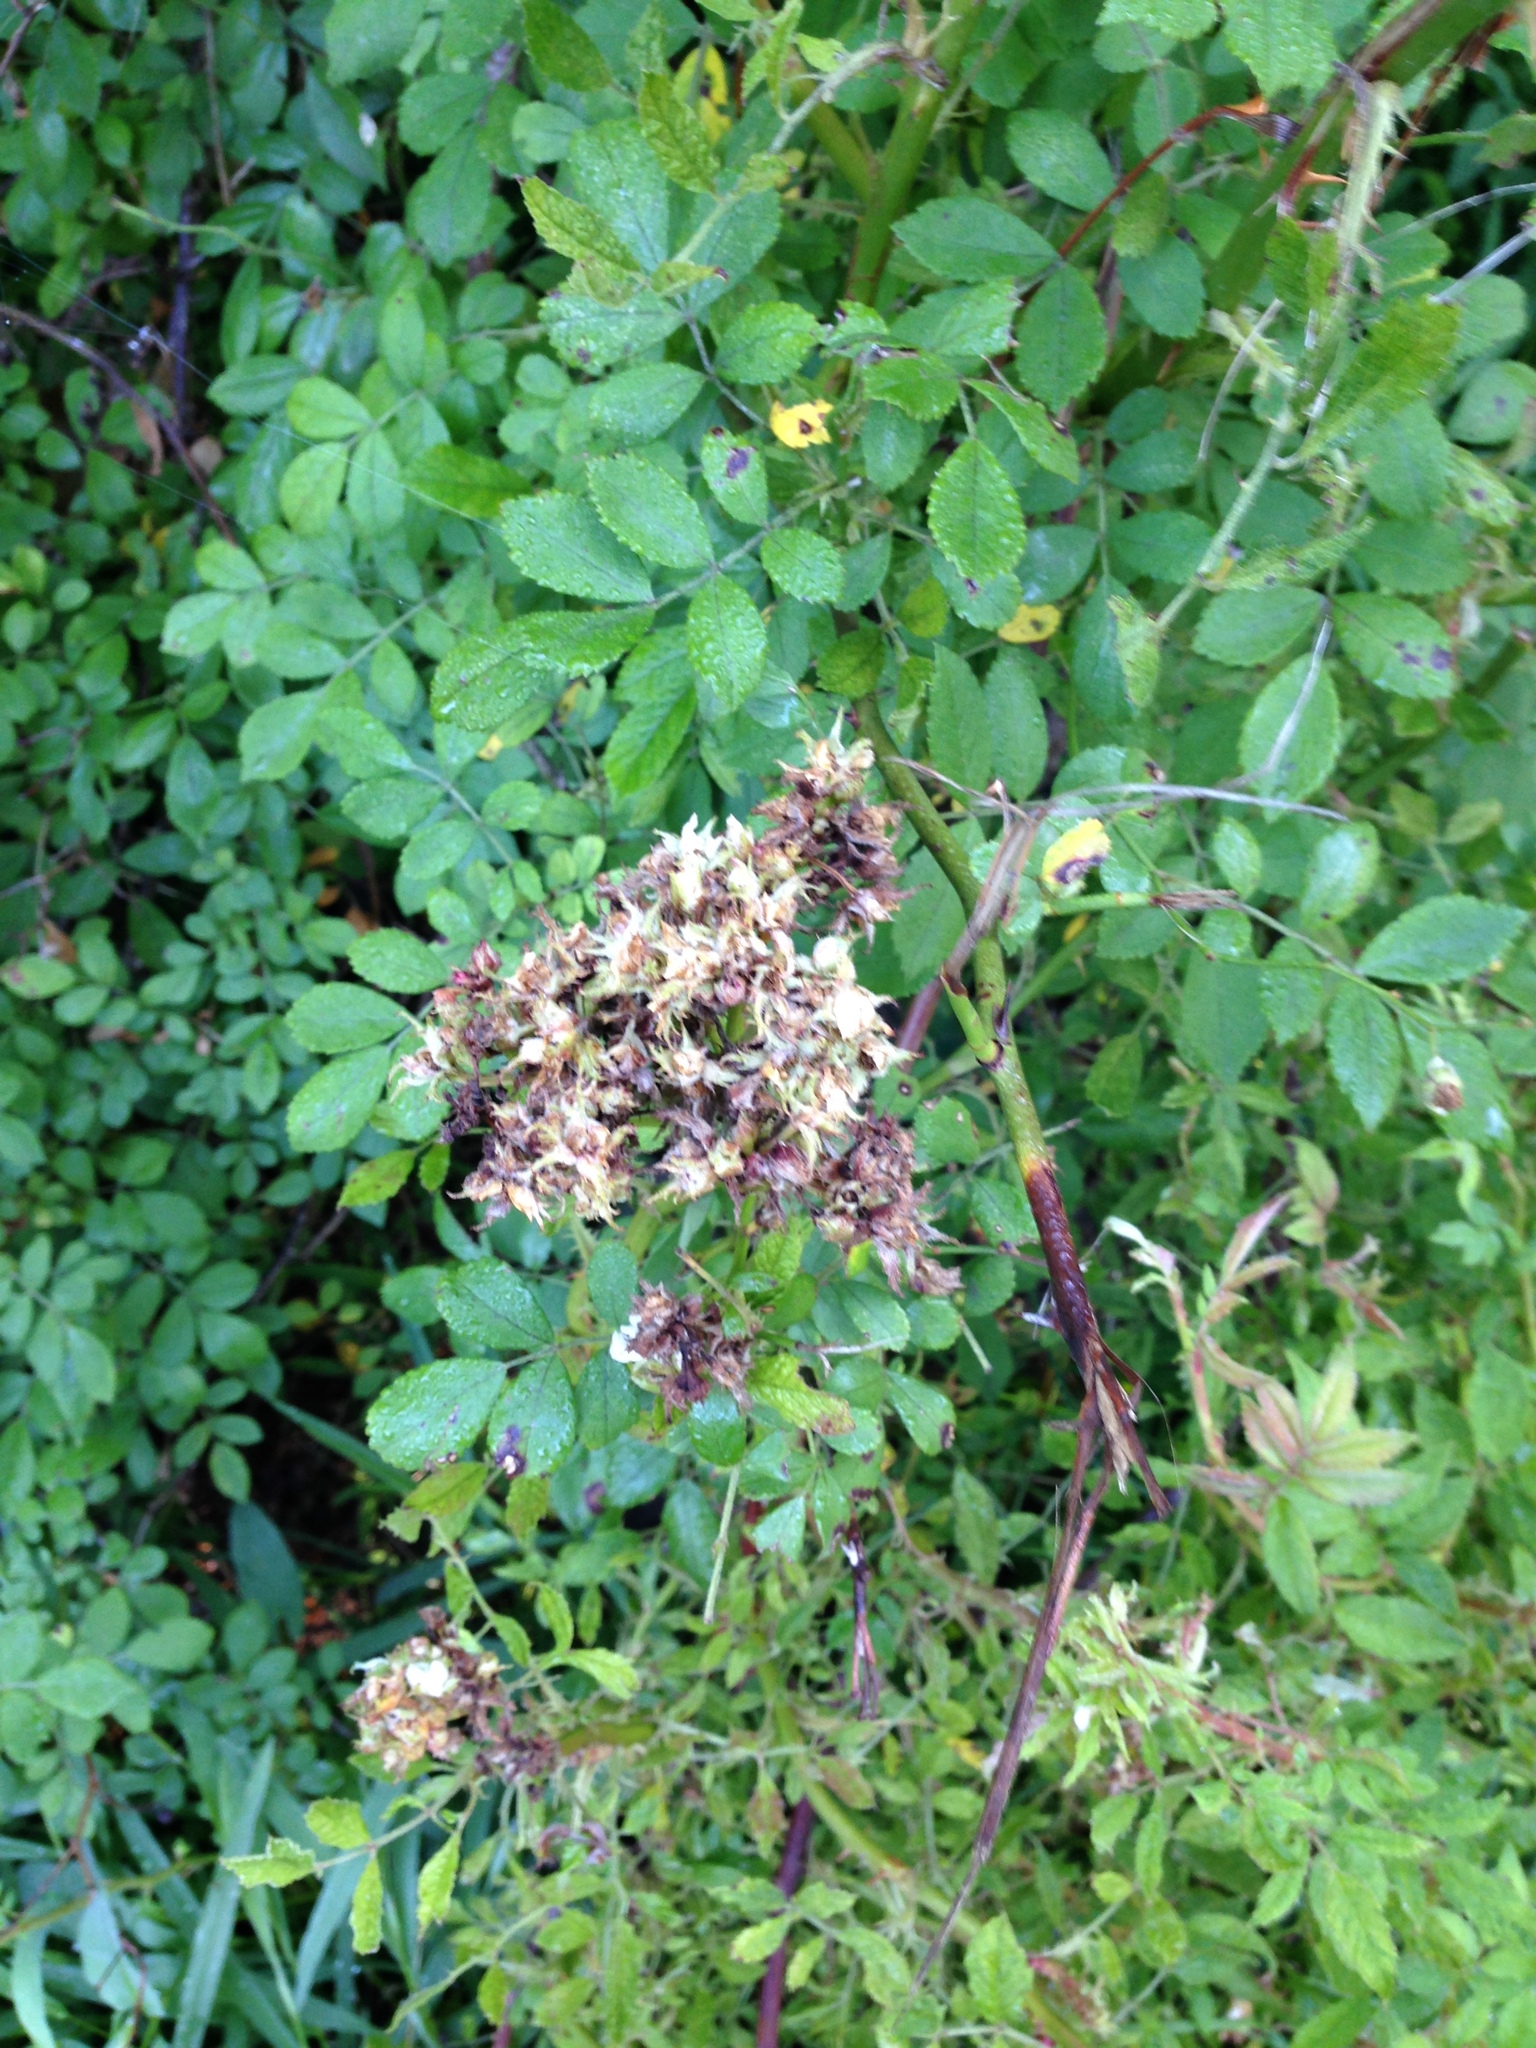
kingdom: Viruses
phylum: Negarnaviricota
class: Ellioviricetes
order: Bunyavirales
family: Fimoviridae
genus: Emaravirus
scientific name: Emaravirus rosae
